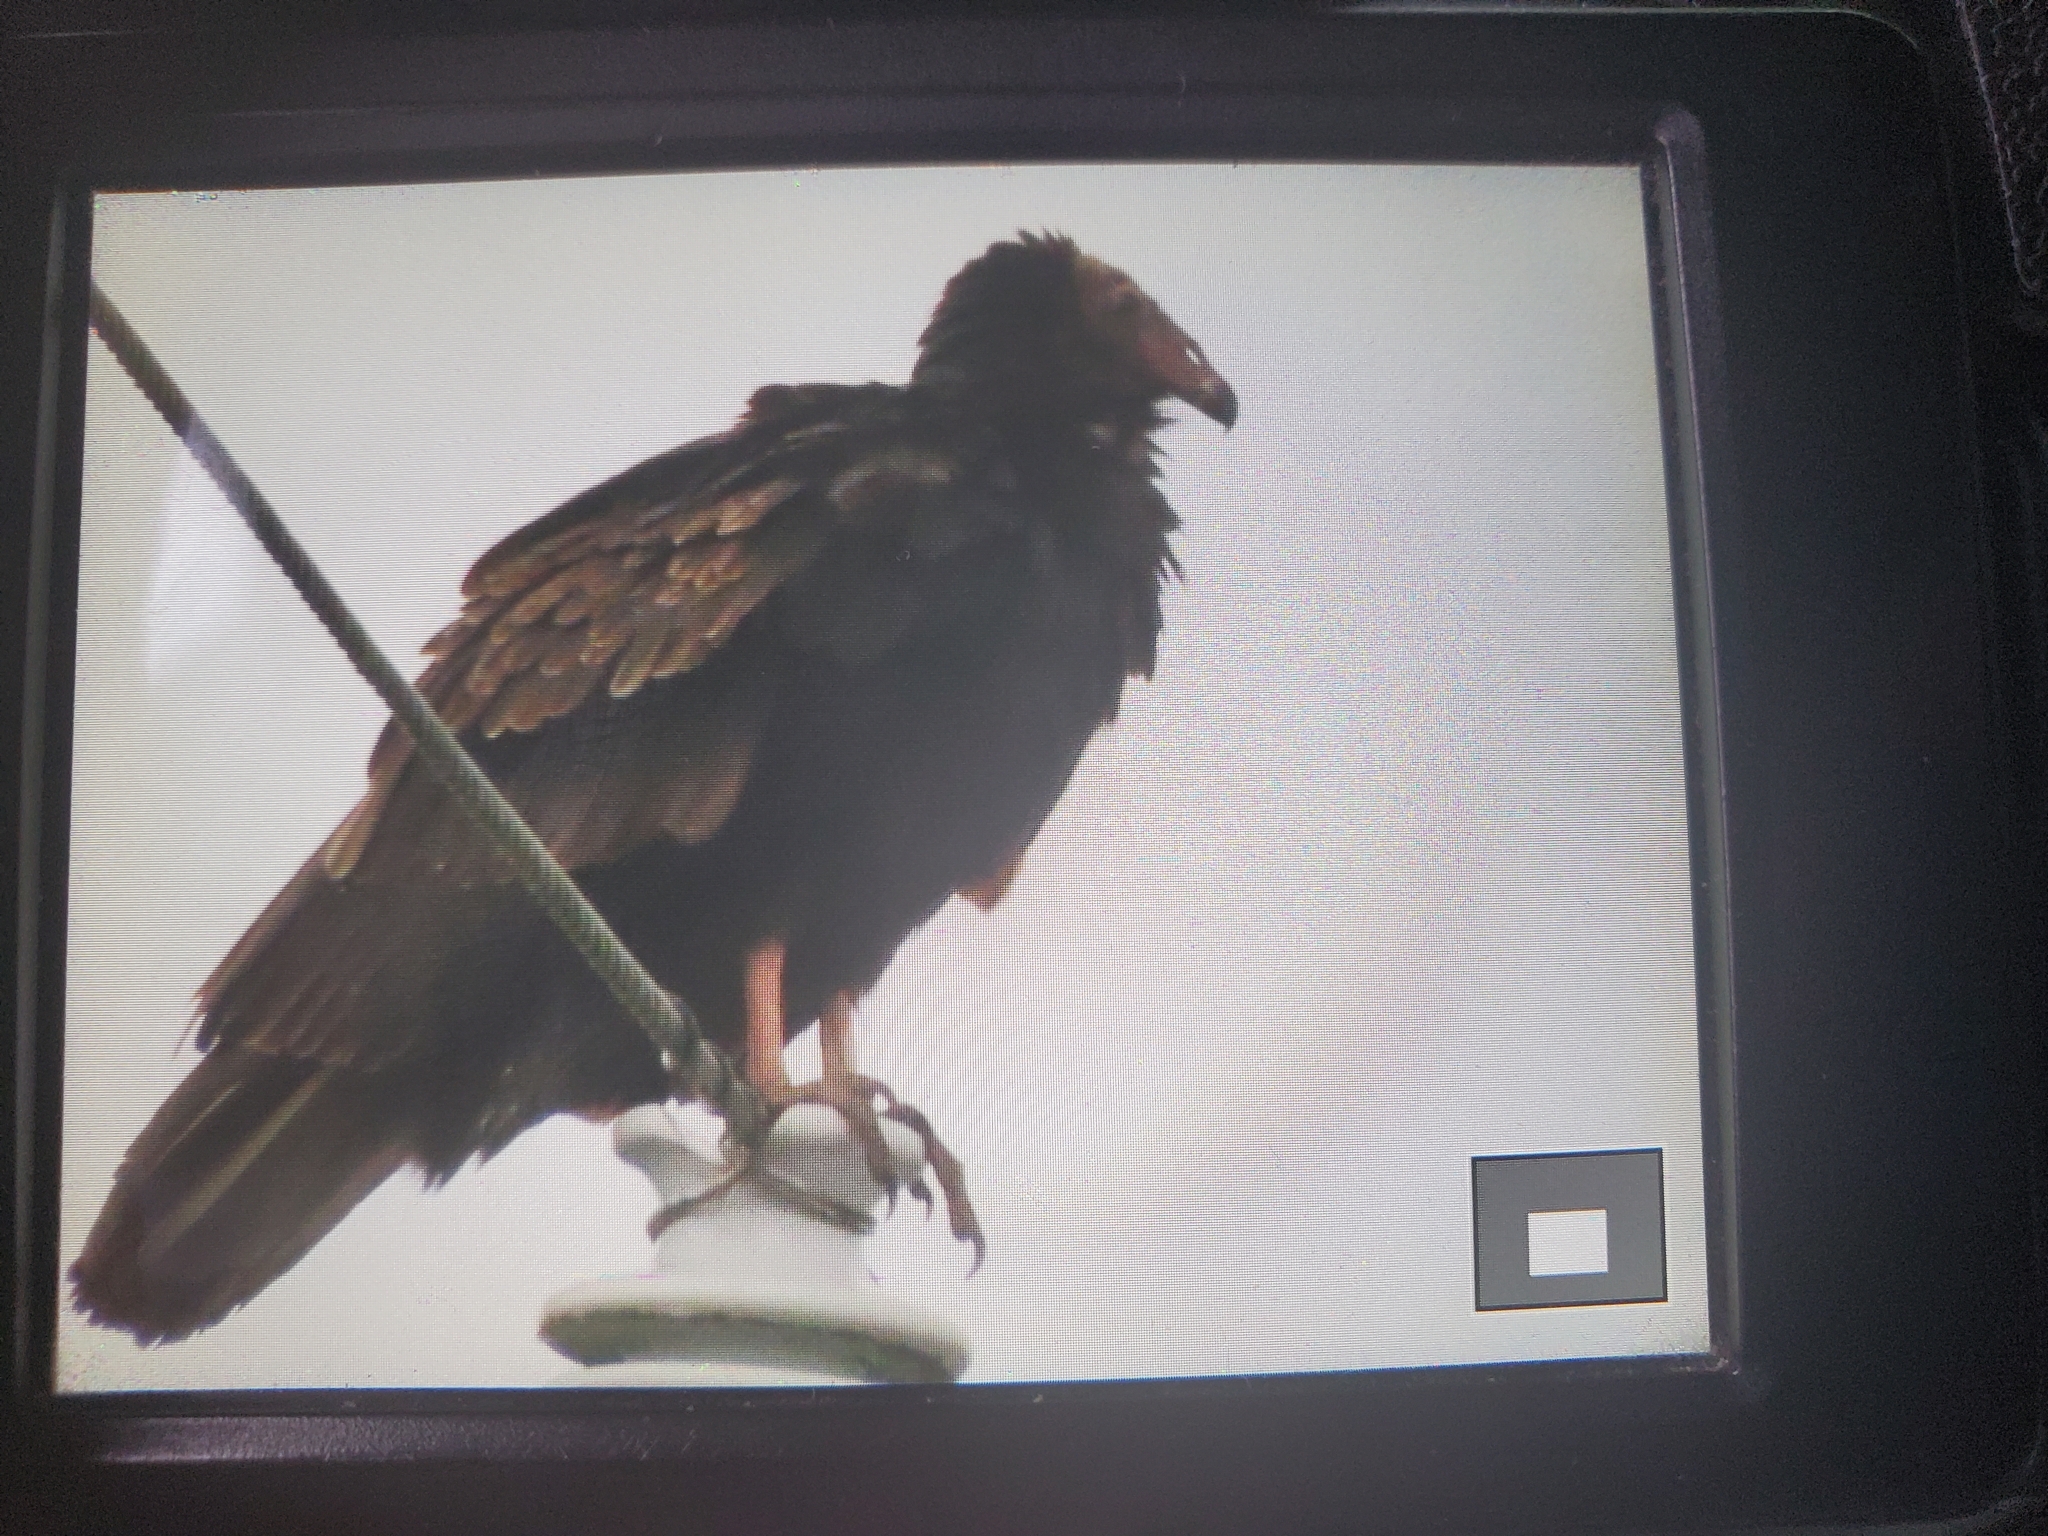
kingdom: Animalia
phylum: Chordata
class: Aves
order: Accipitriformes
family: Cathartidae
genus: Cathartes
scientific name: Cathartes aura
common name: Turkey vulture
